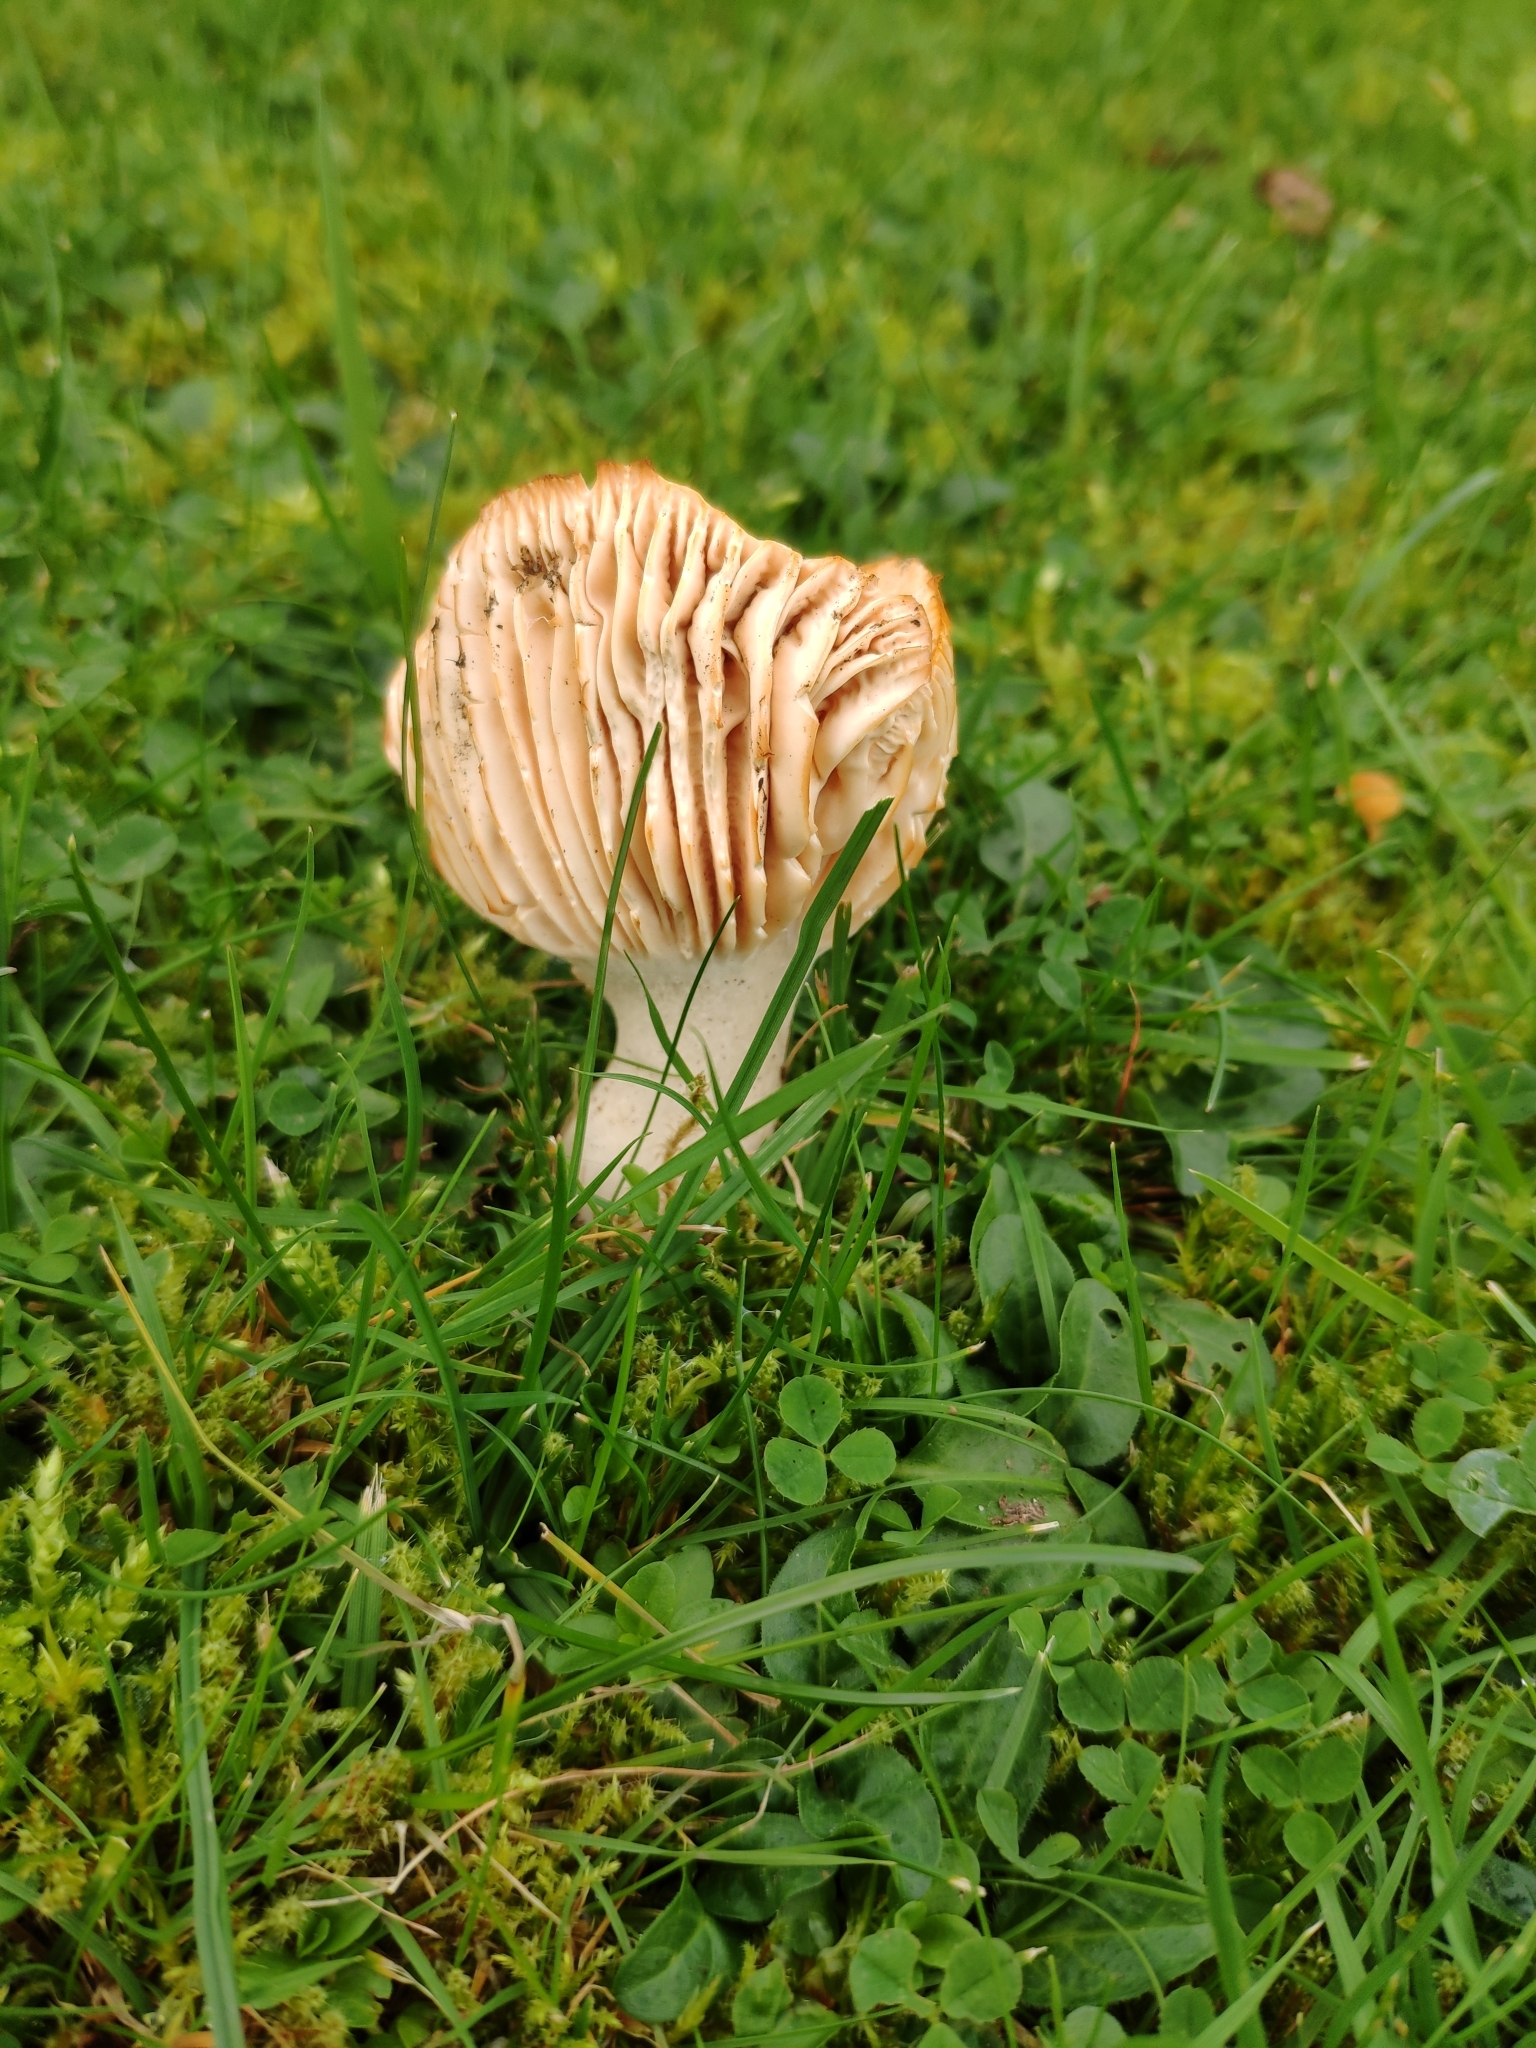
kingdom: Fungi
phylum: Basidiomycota
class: Agaricomycetes
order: Agaricales
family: Hygrophoraceae
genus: Cuphophyllus
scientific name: Cuphophyllus pratensis
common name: Meadow waxcap
